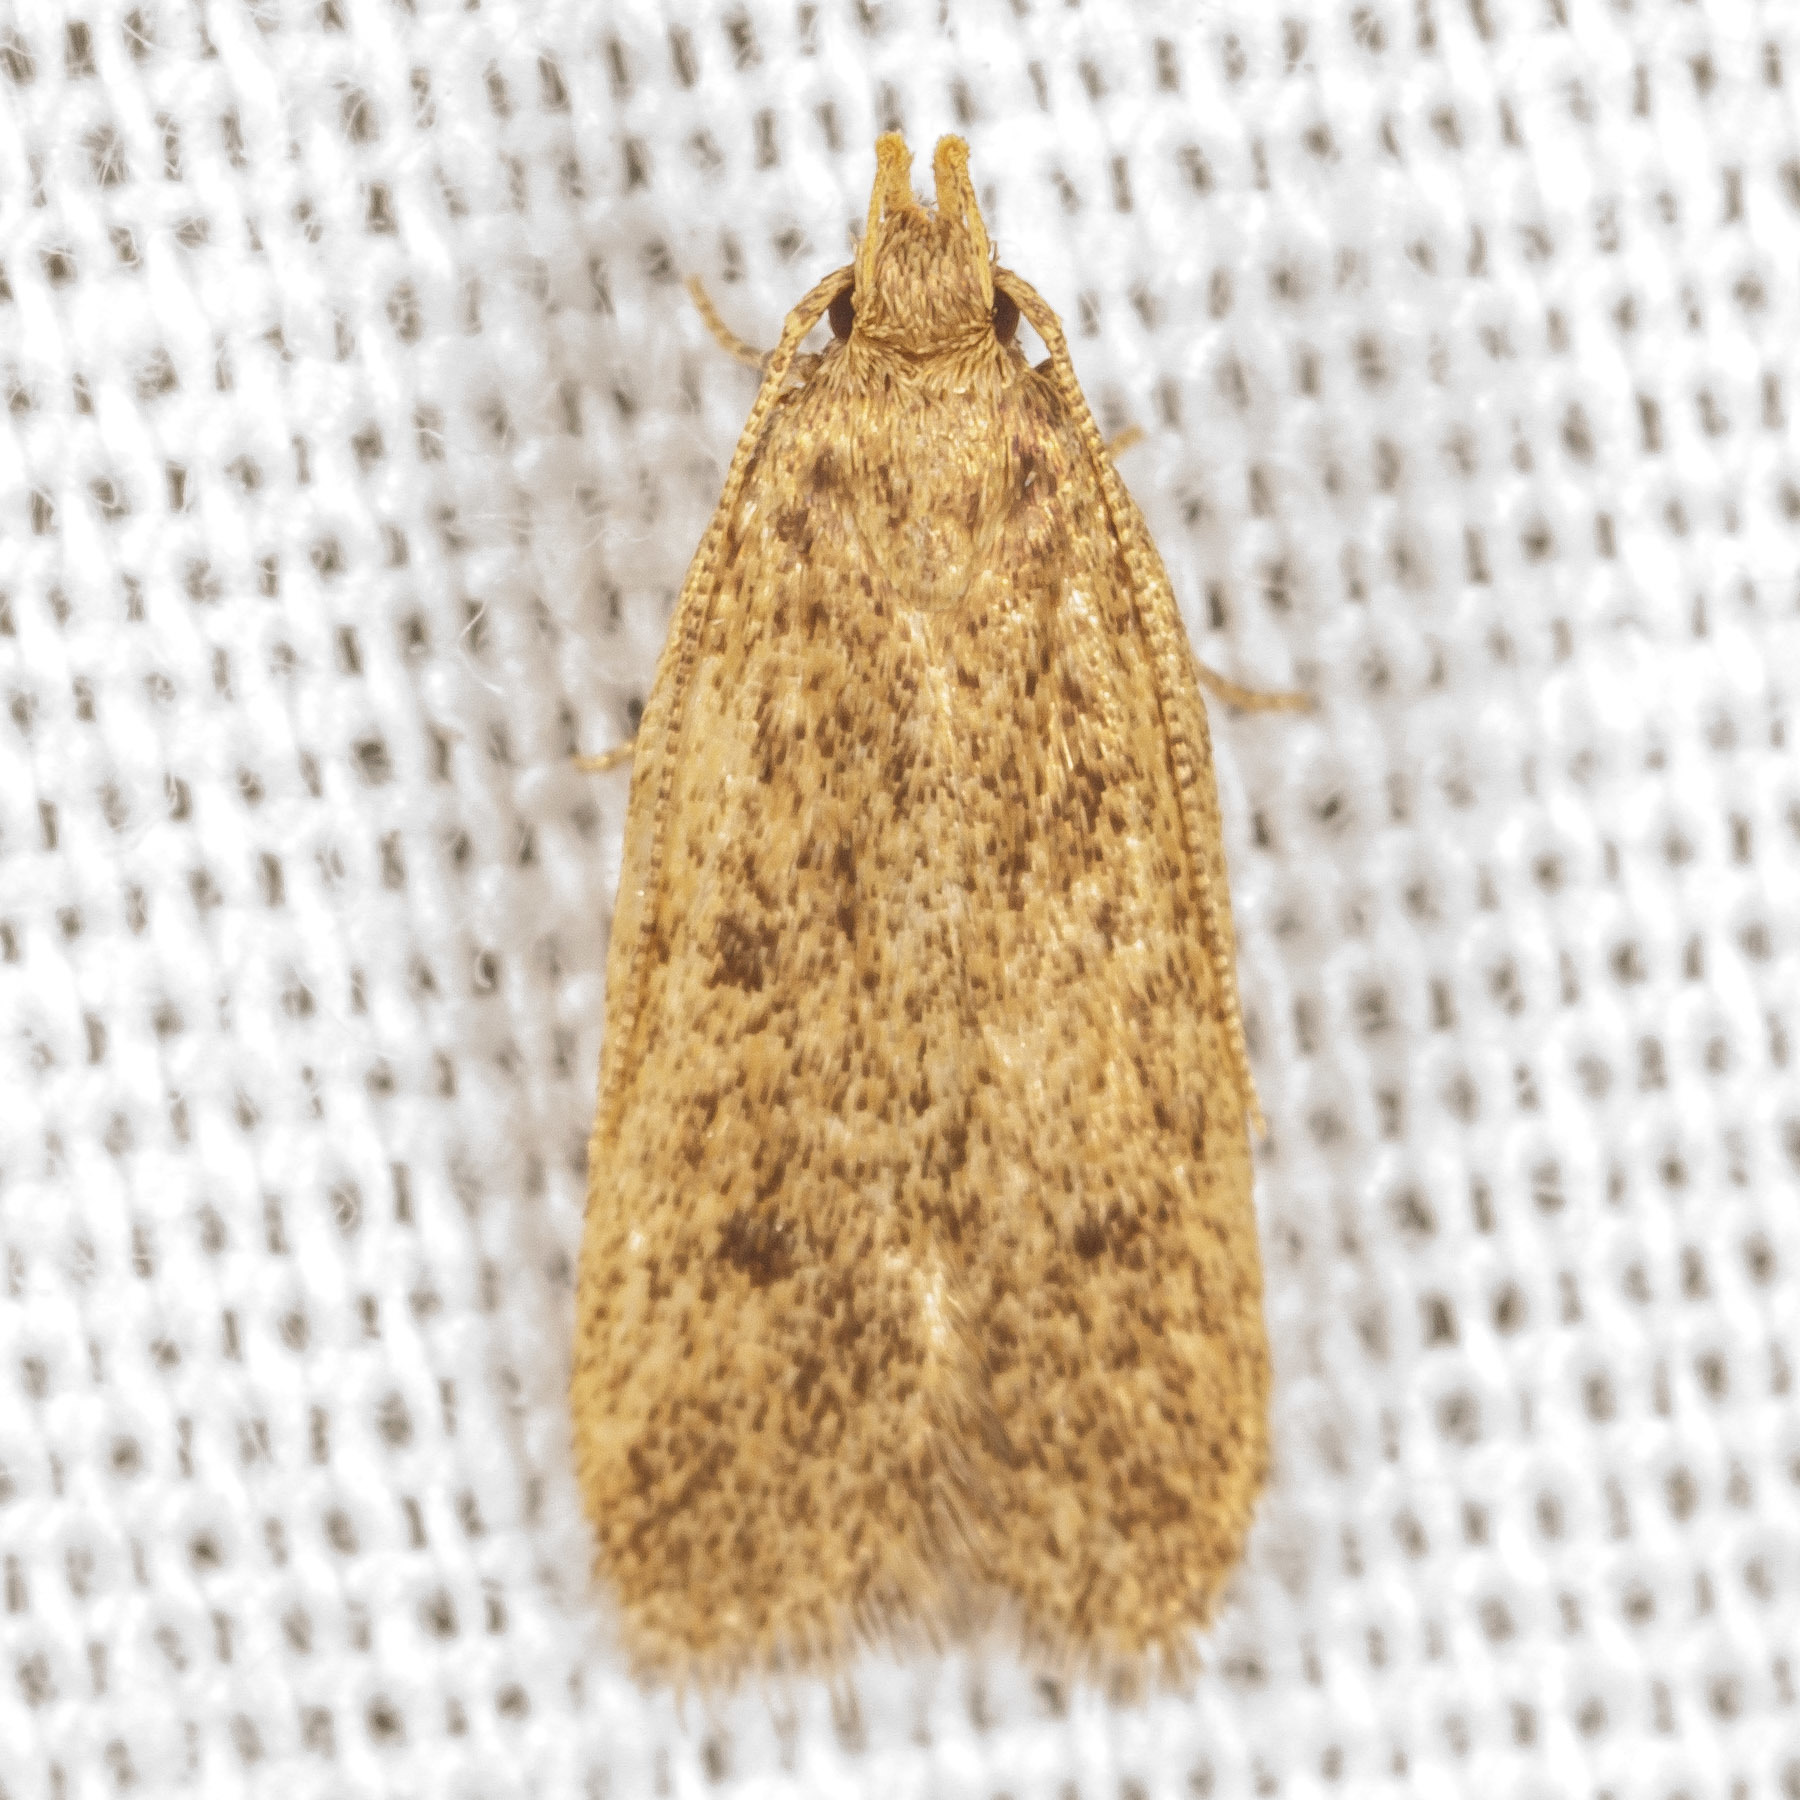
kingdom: Animalia
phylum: Arthropoda
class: Insecta
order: Lepidoptera
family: Autostichidae
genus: Glyphidocera
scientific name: Glyphidocera juniperella
